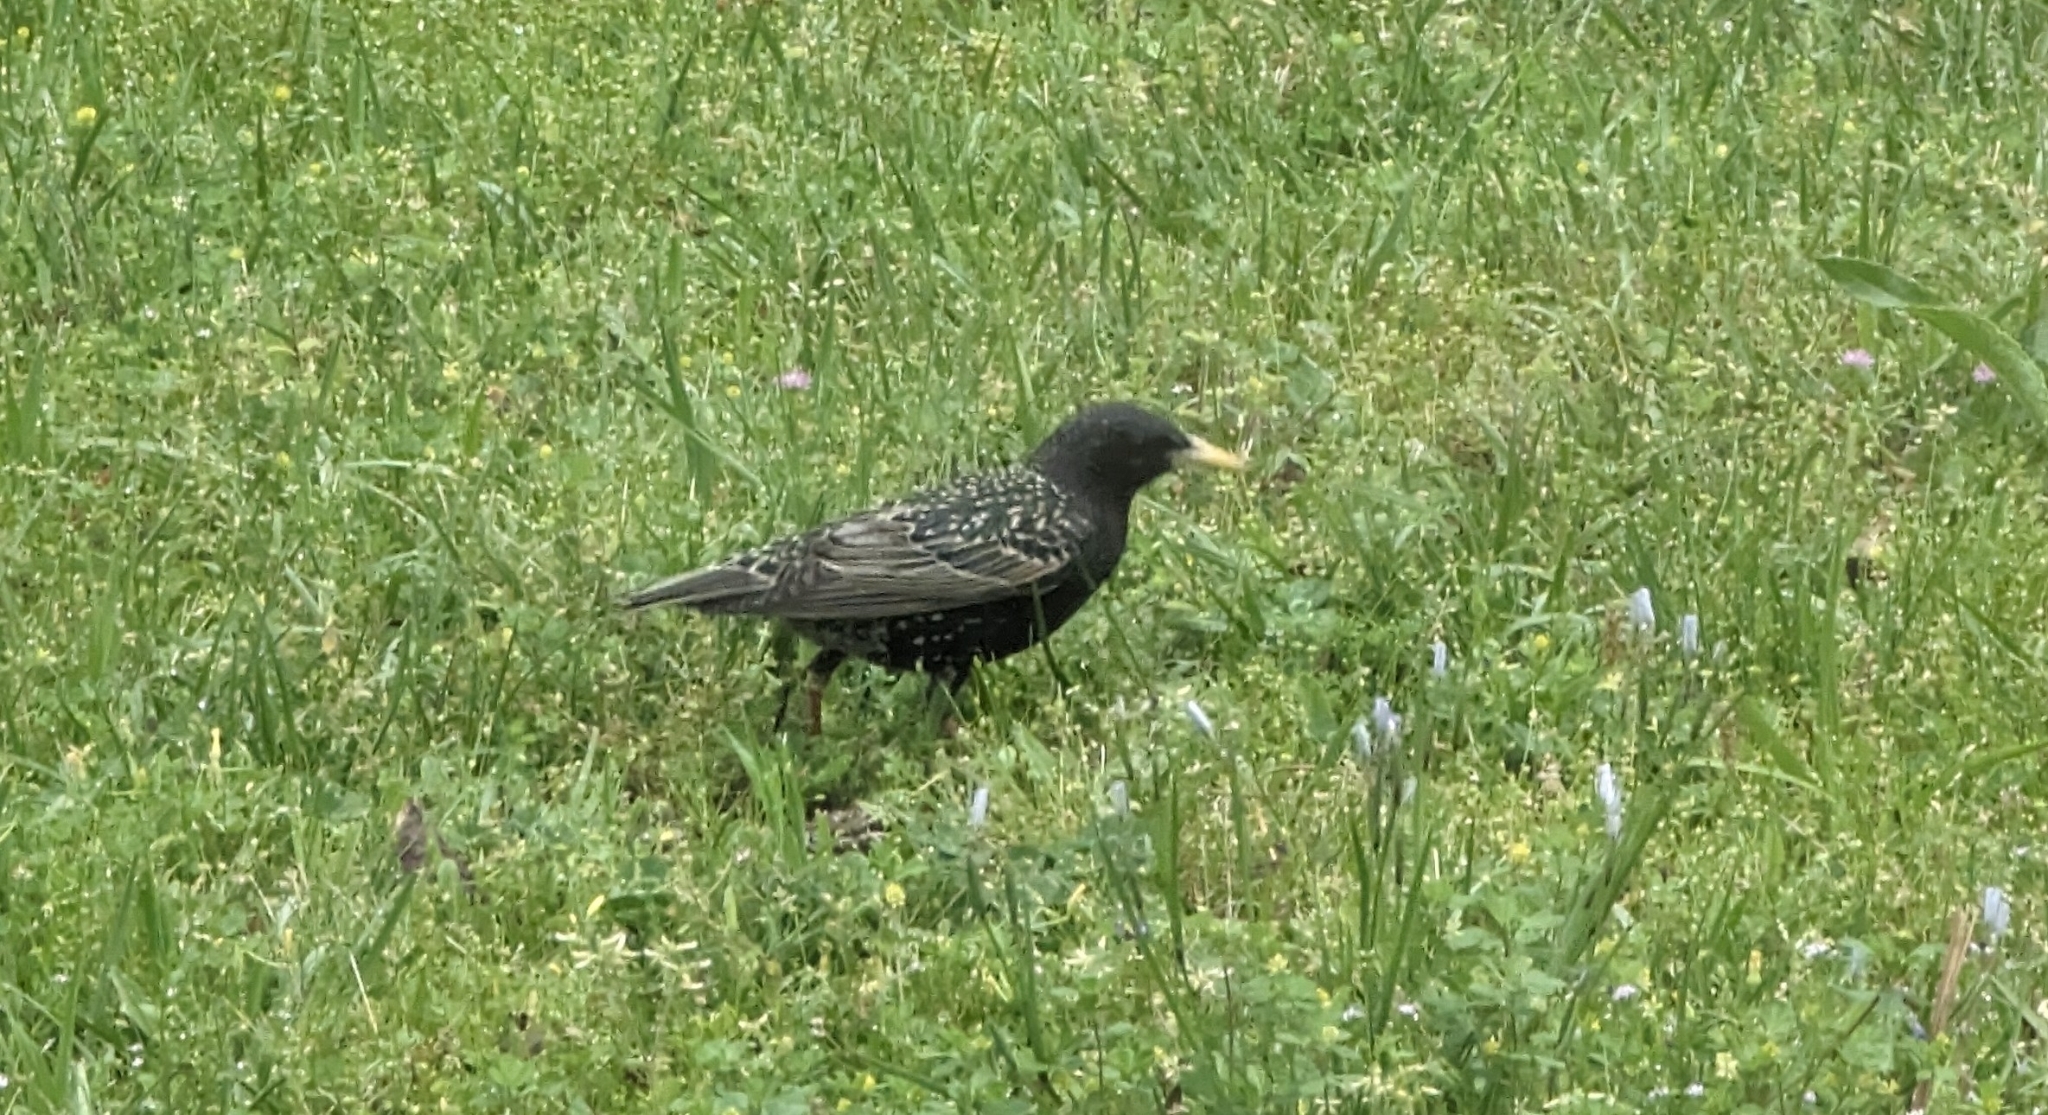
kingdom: Animalia
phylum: Chordata
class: Aves
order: Passeriformes
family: Sturnidae
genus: Sturnus
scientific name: Sturnus vulgaris
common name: Common starling
